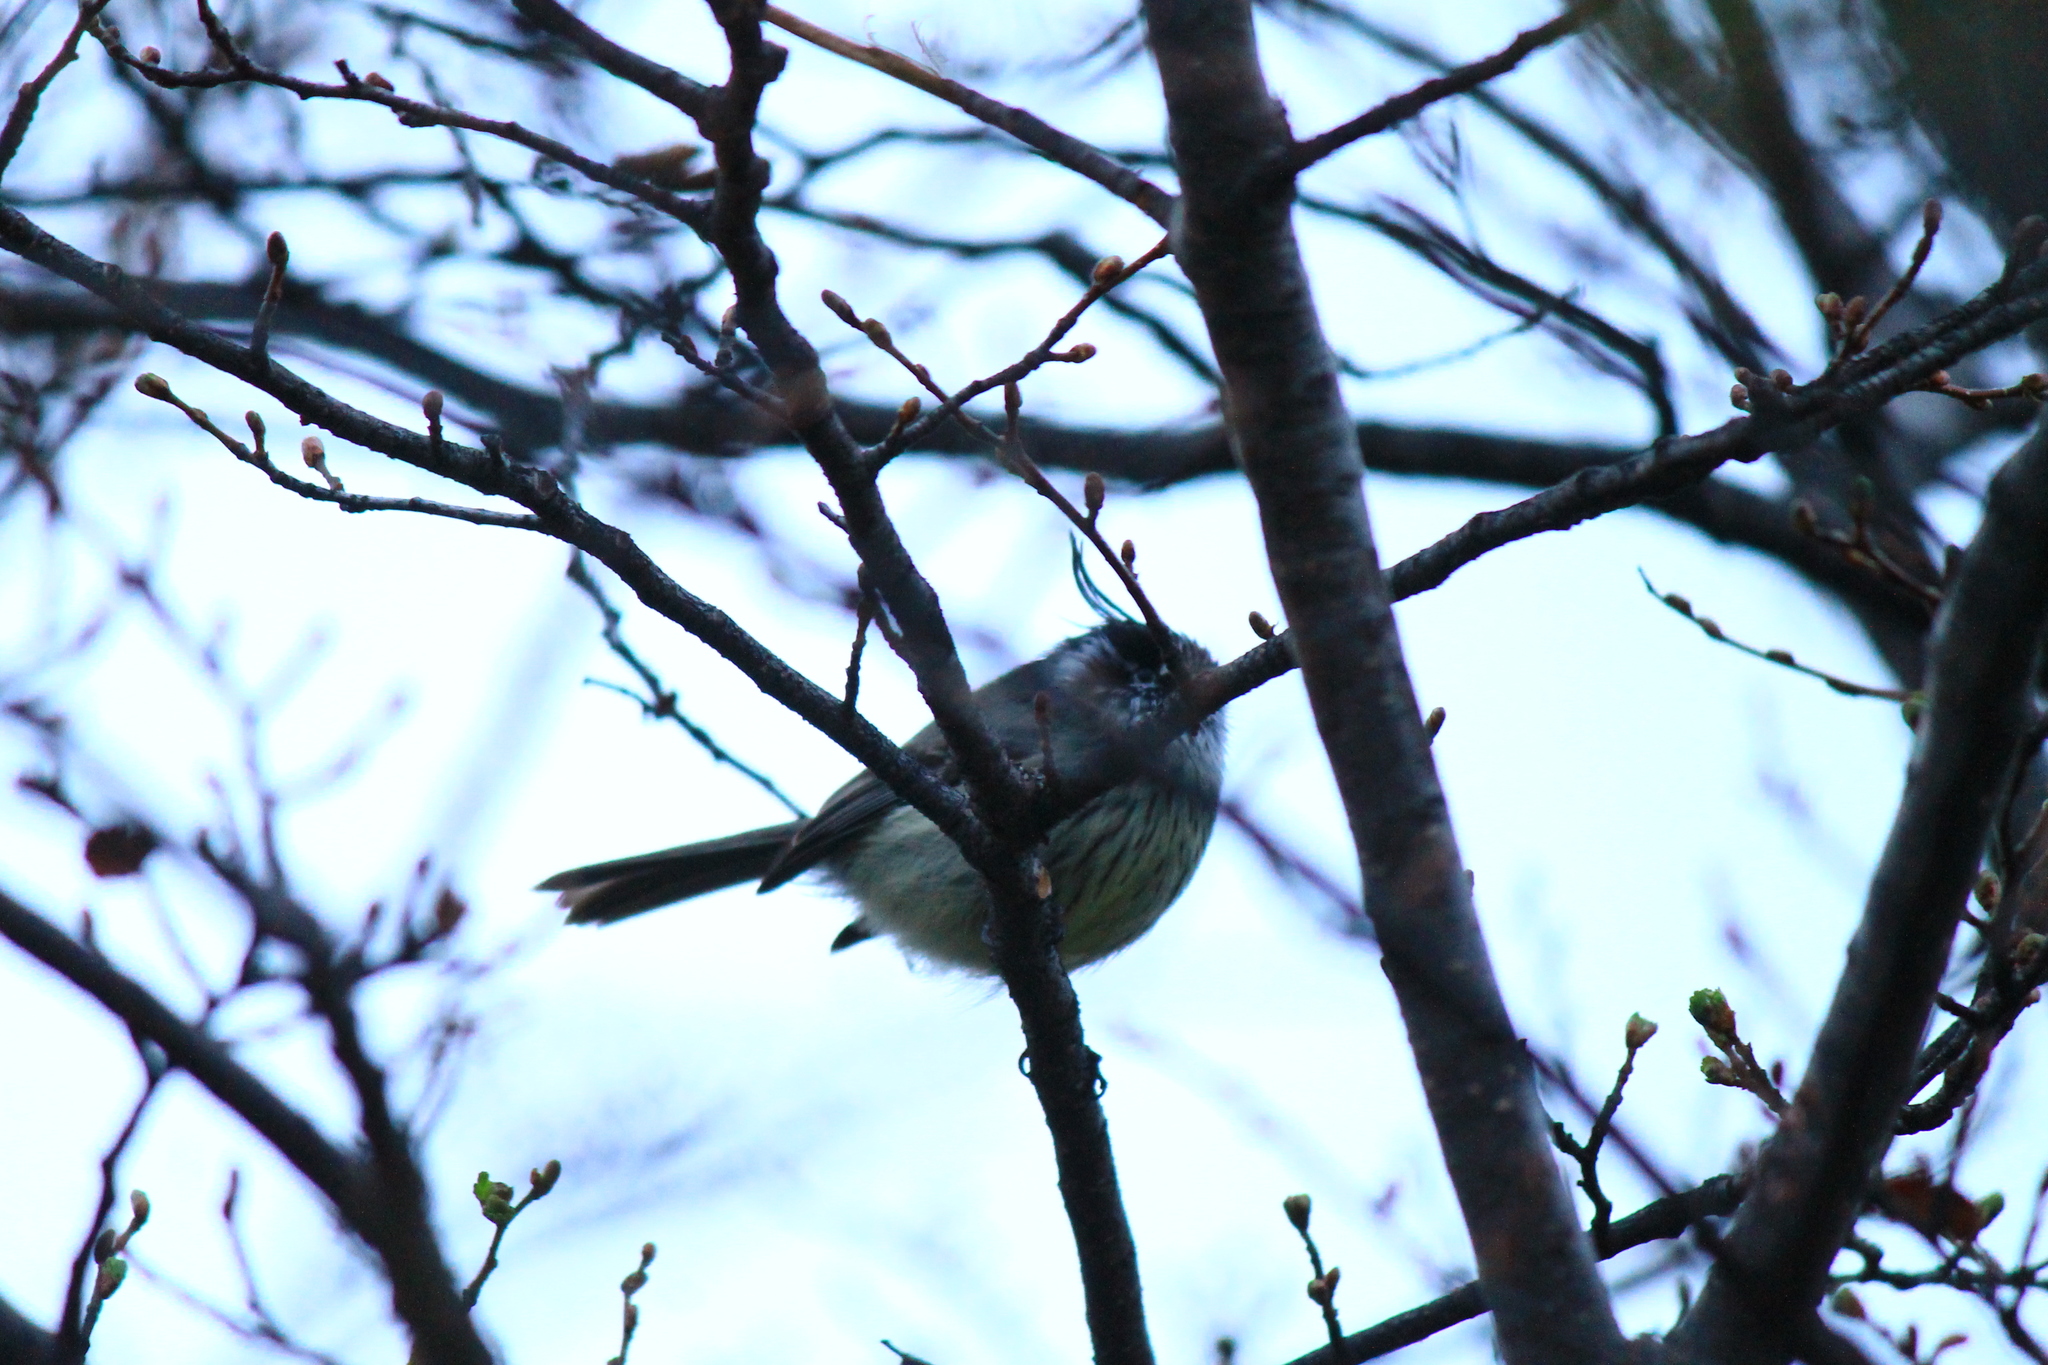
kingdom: Animalia
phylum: Chordata
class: Aves
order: Passeriformes
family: Tyrannidae
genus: Anairetes
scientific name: Anairetes parulus
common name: Tufted tit-tyrant
